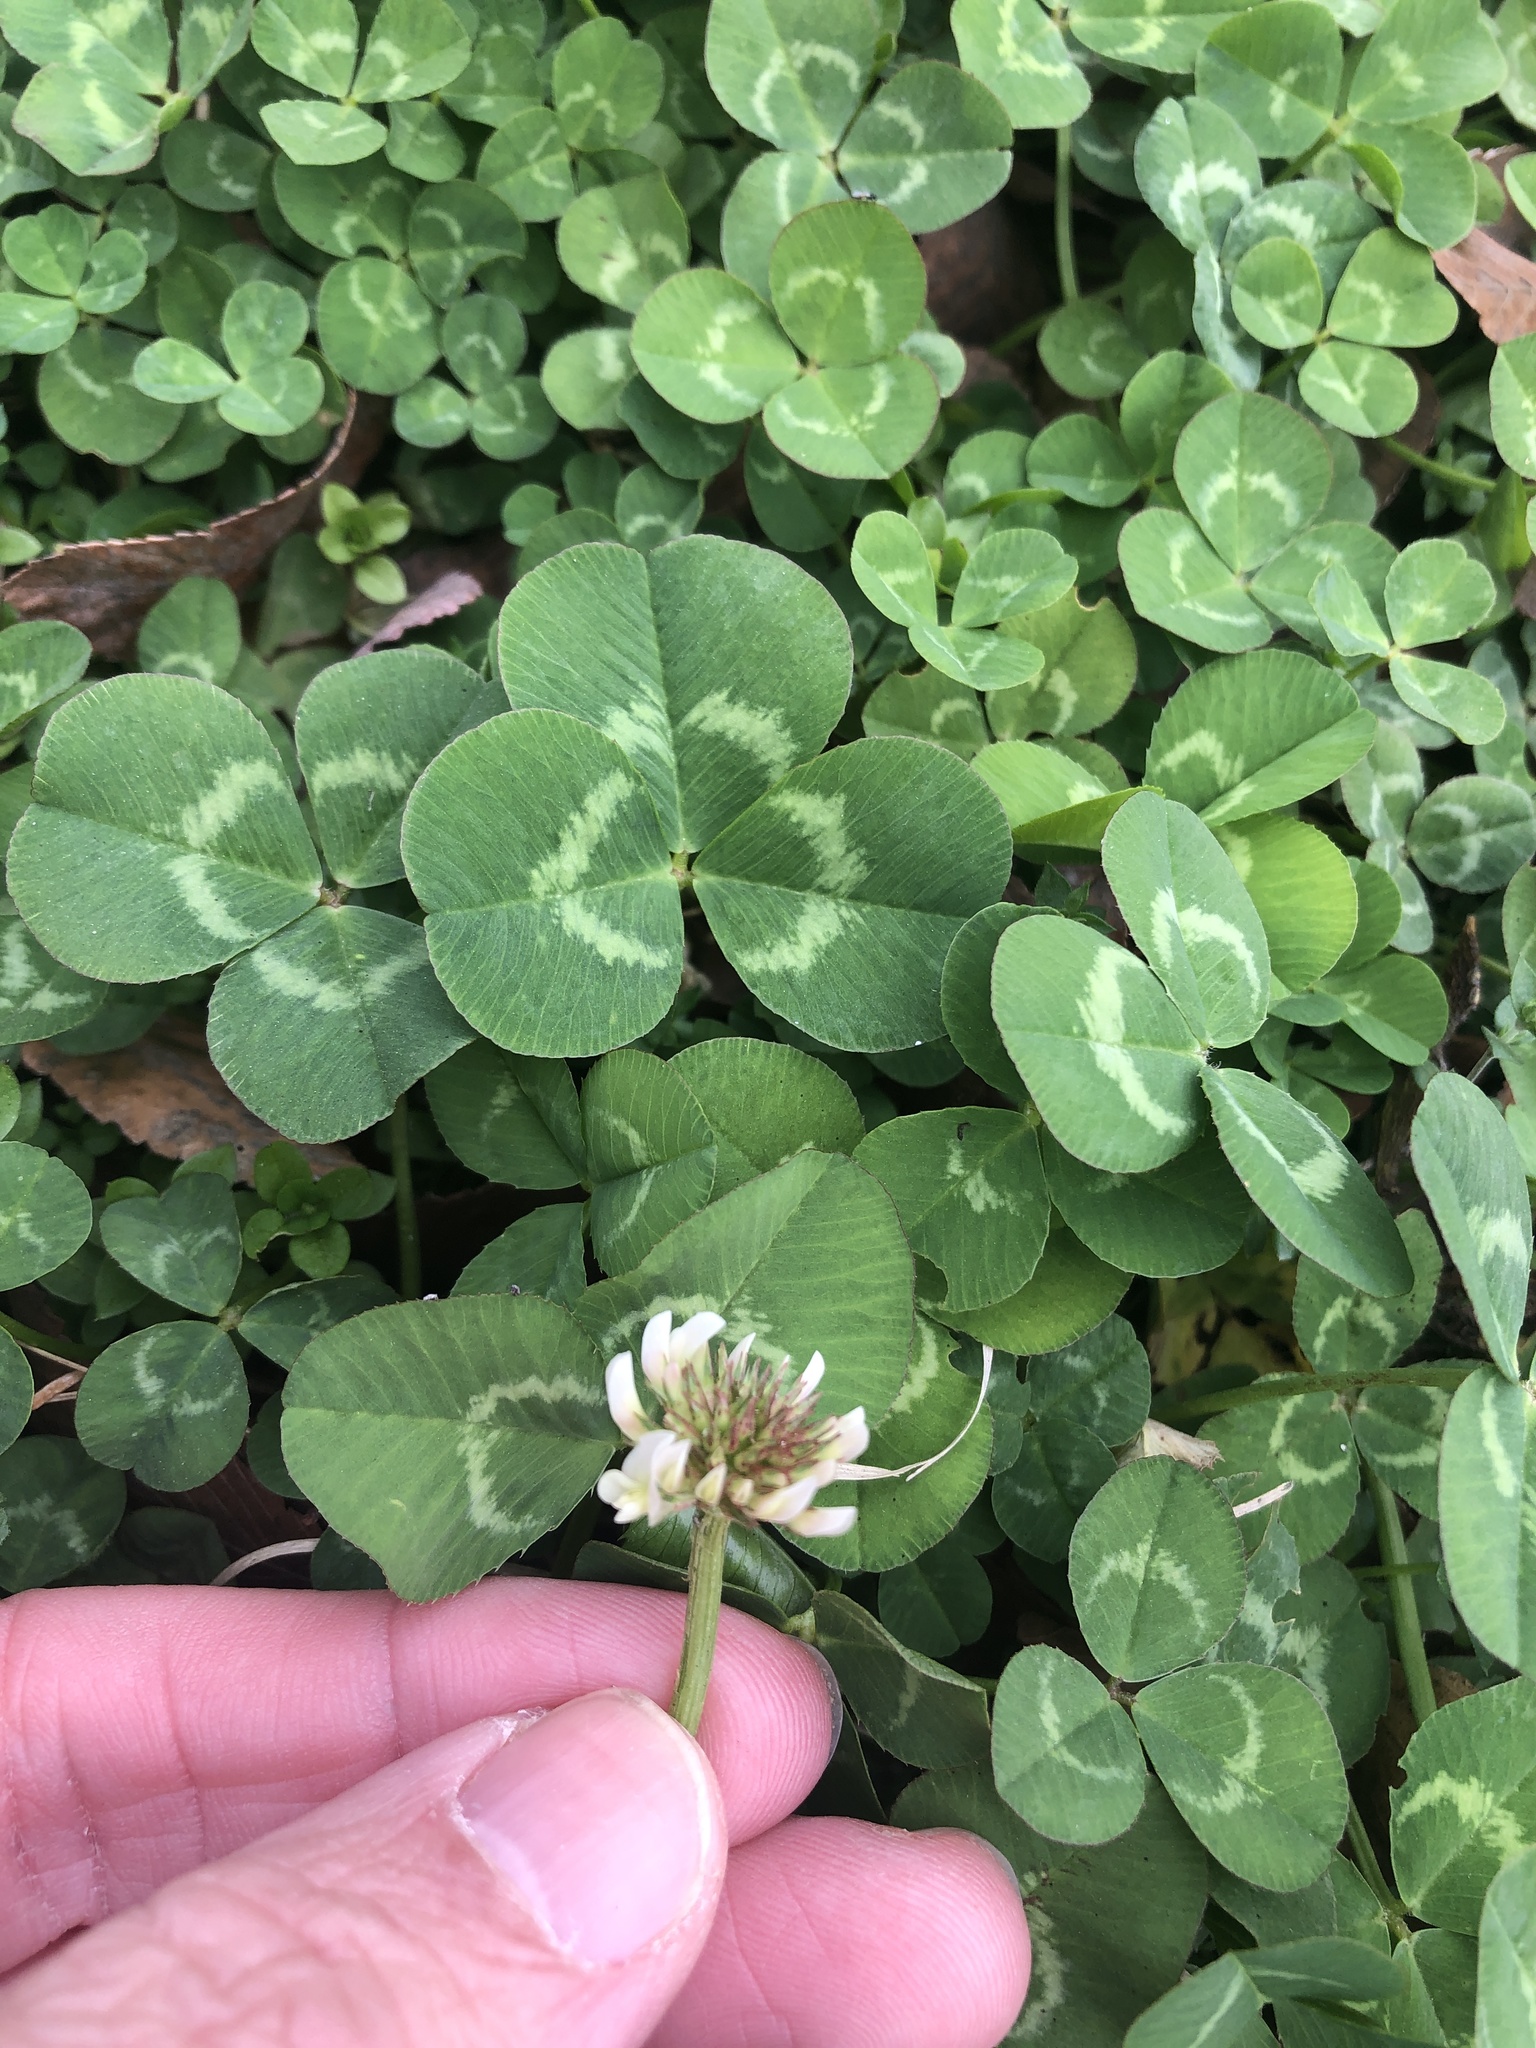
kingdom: Plantae
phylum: Tracheophyta
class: Magnoliopsida
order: Fabales
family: Fabaceae
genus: Trifolium
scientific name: Trifolium repens
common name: White clover
